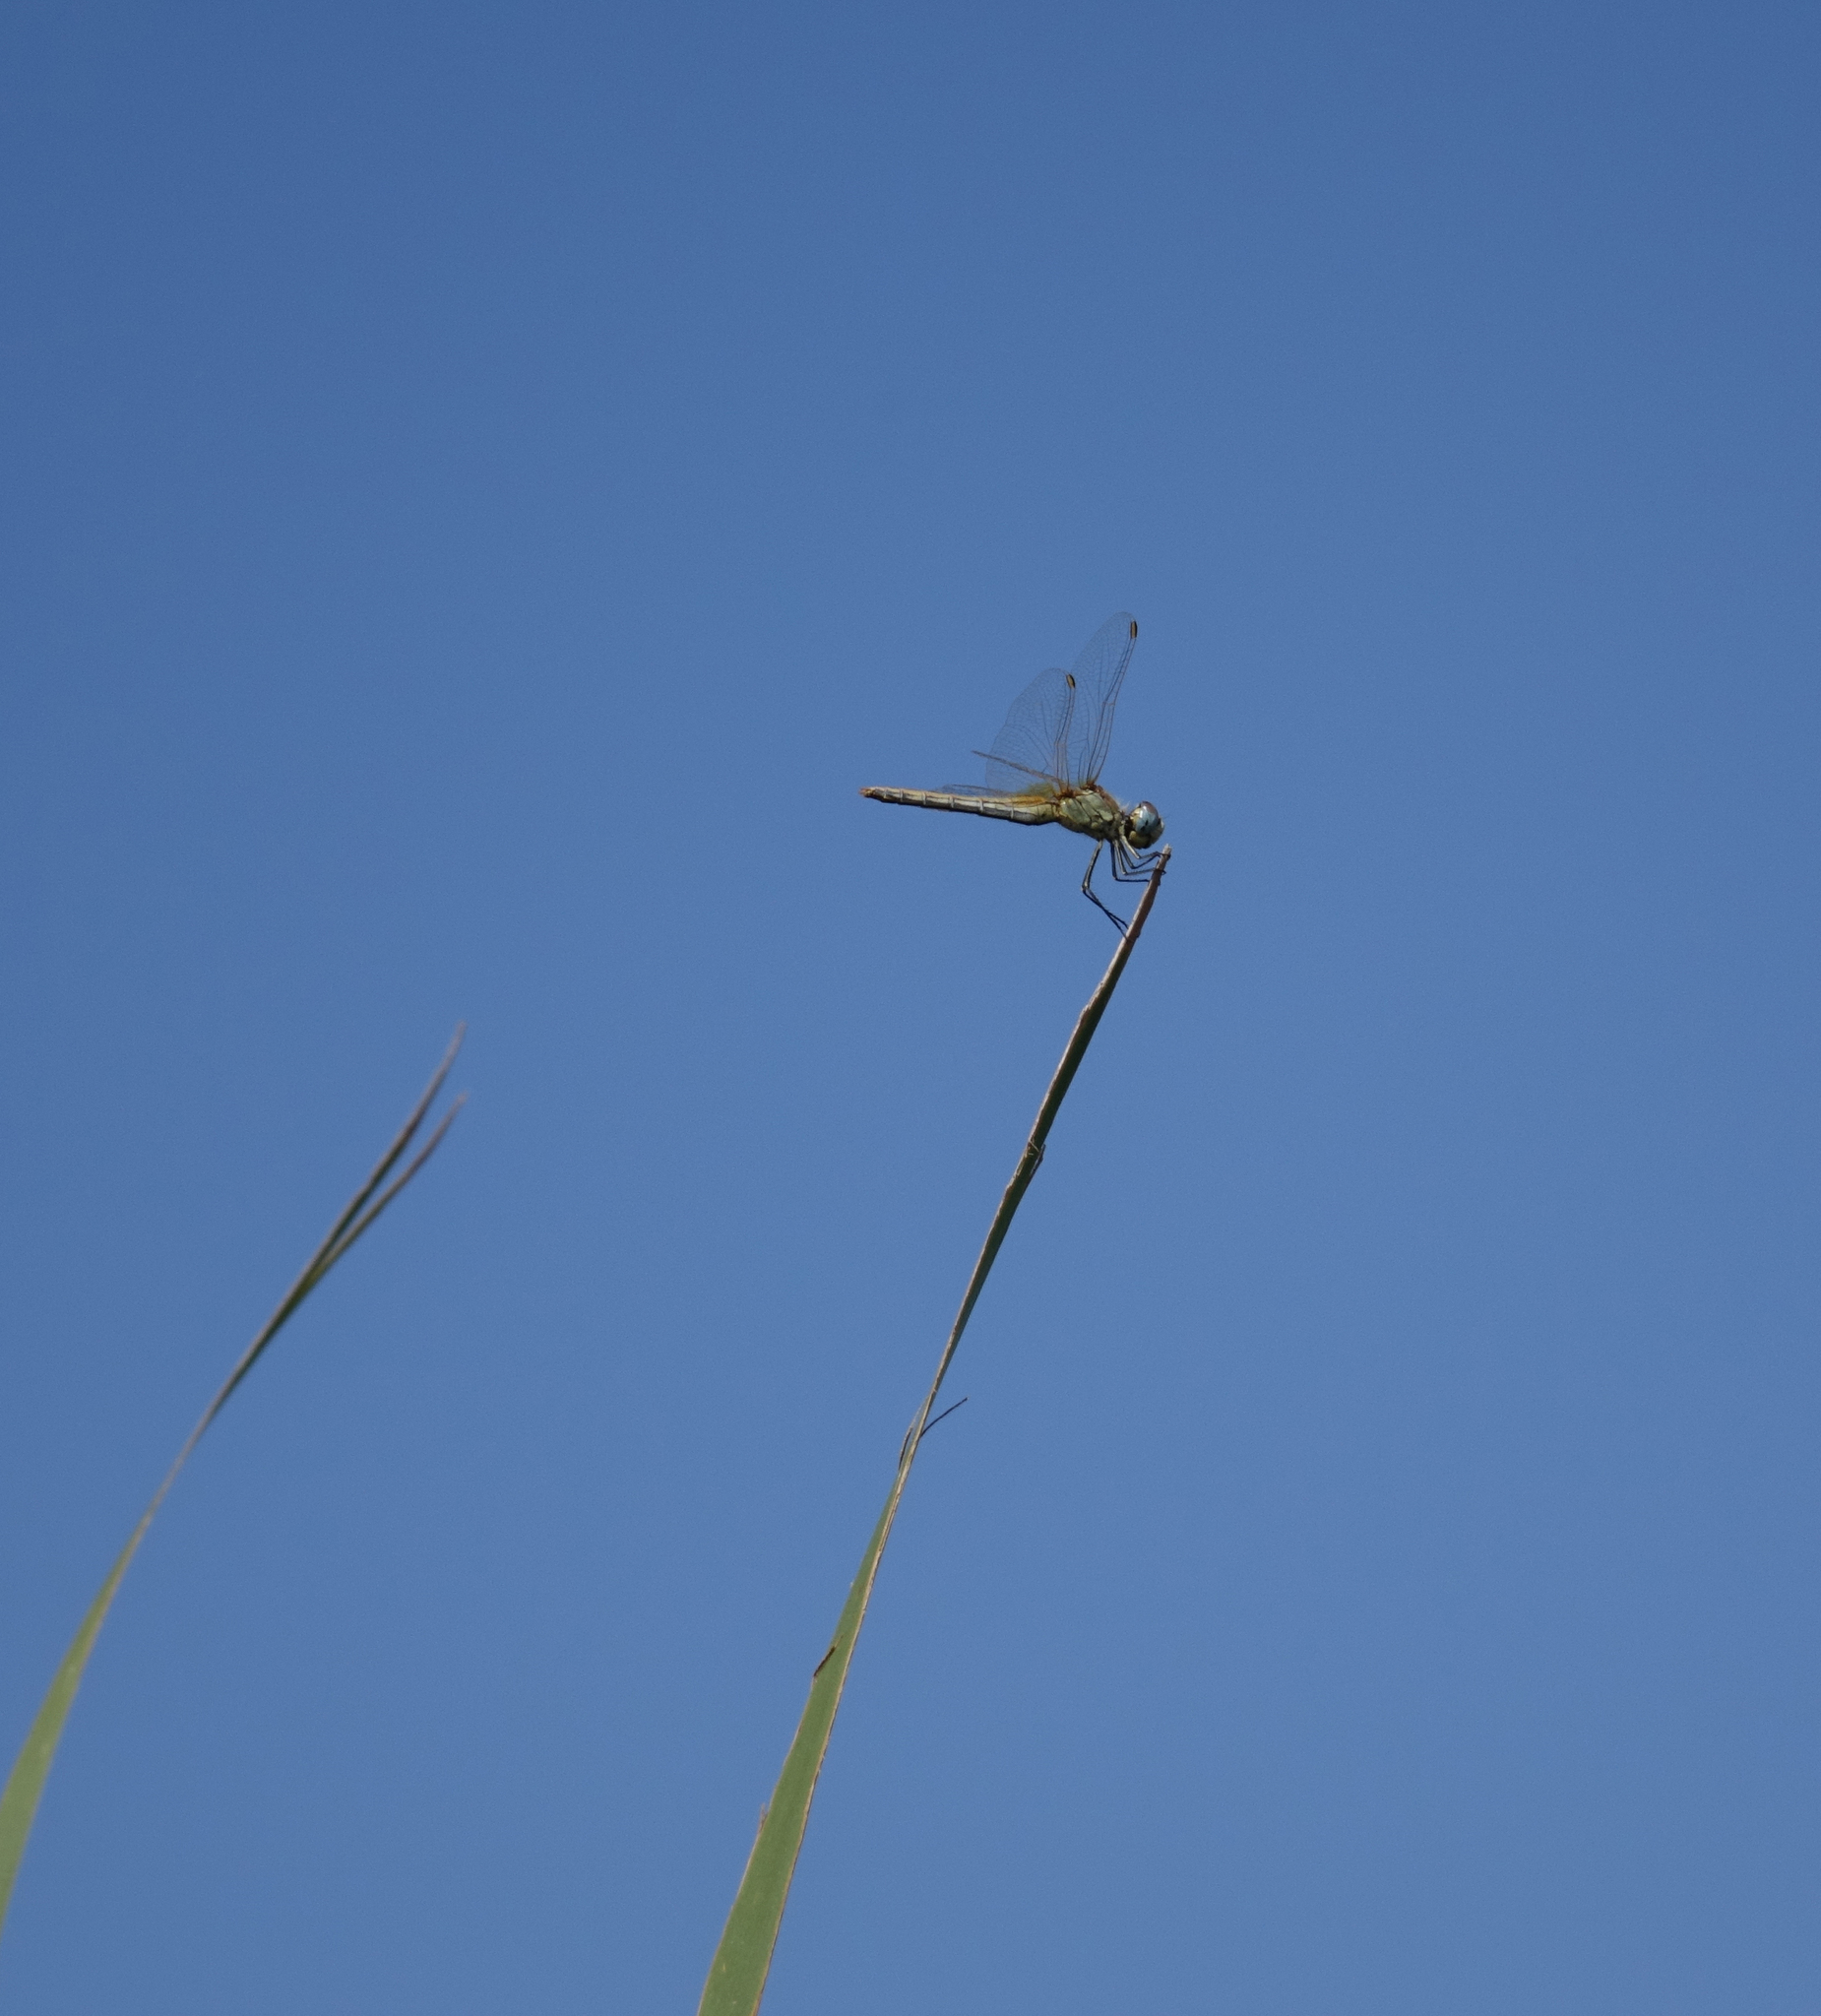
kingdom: Animalia
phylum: Arthropoda
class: Insecta
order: Odonata
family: Libellulidae
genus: Sympetrum
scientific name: Sympetrum fonscolombii
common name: Red-veined darter
